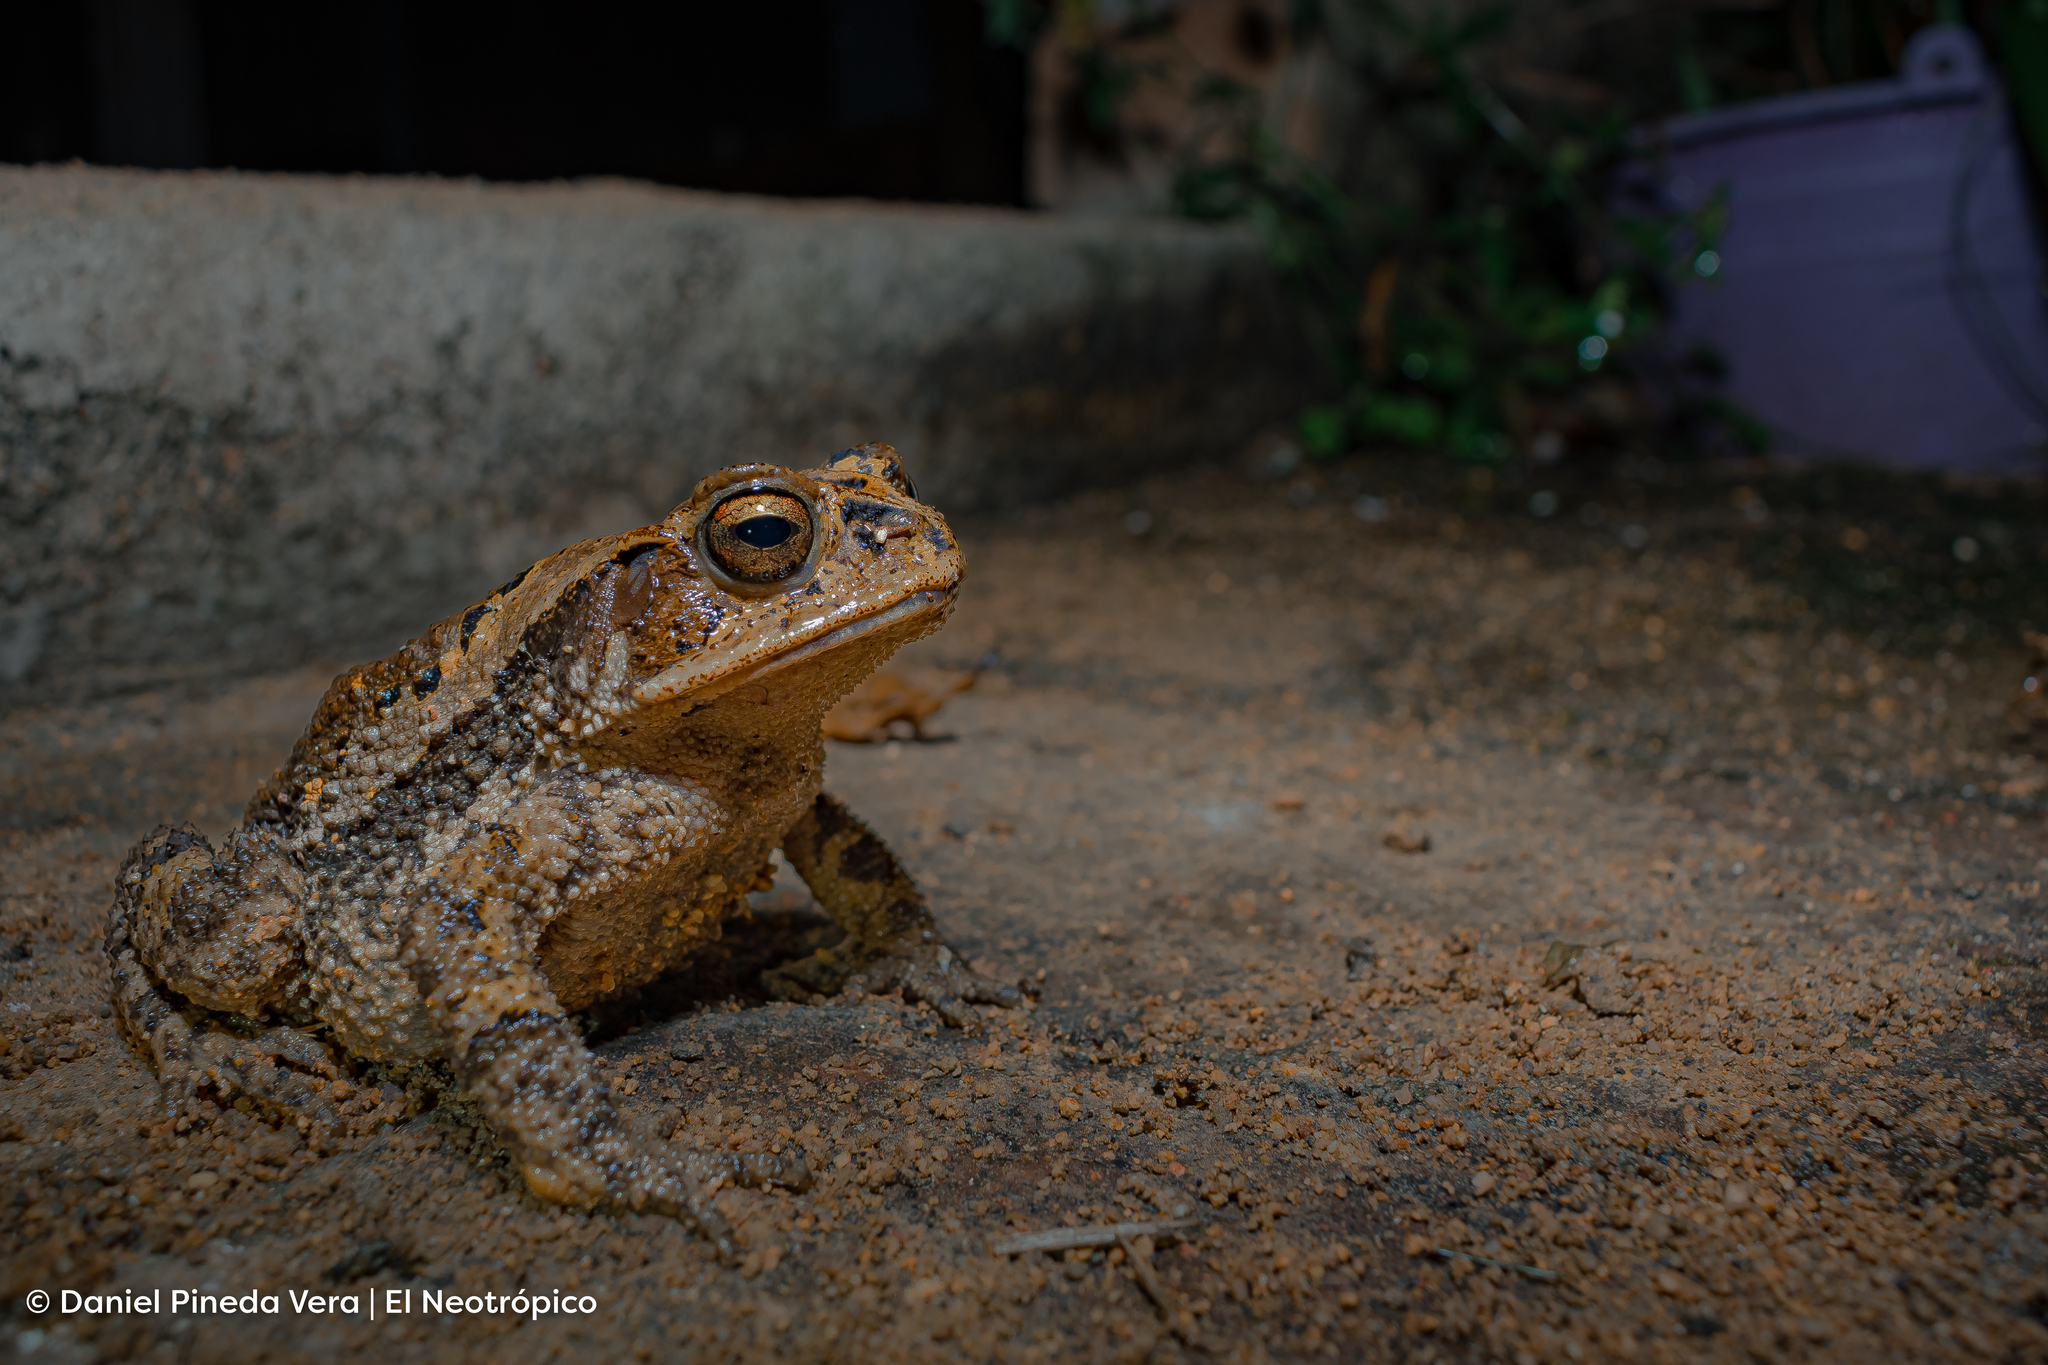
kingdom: Animalia
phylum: Chordata
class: Amphibia
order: Anura
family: Bufonidae
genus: Incilius
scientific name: Incilius tutelarius
